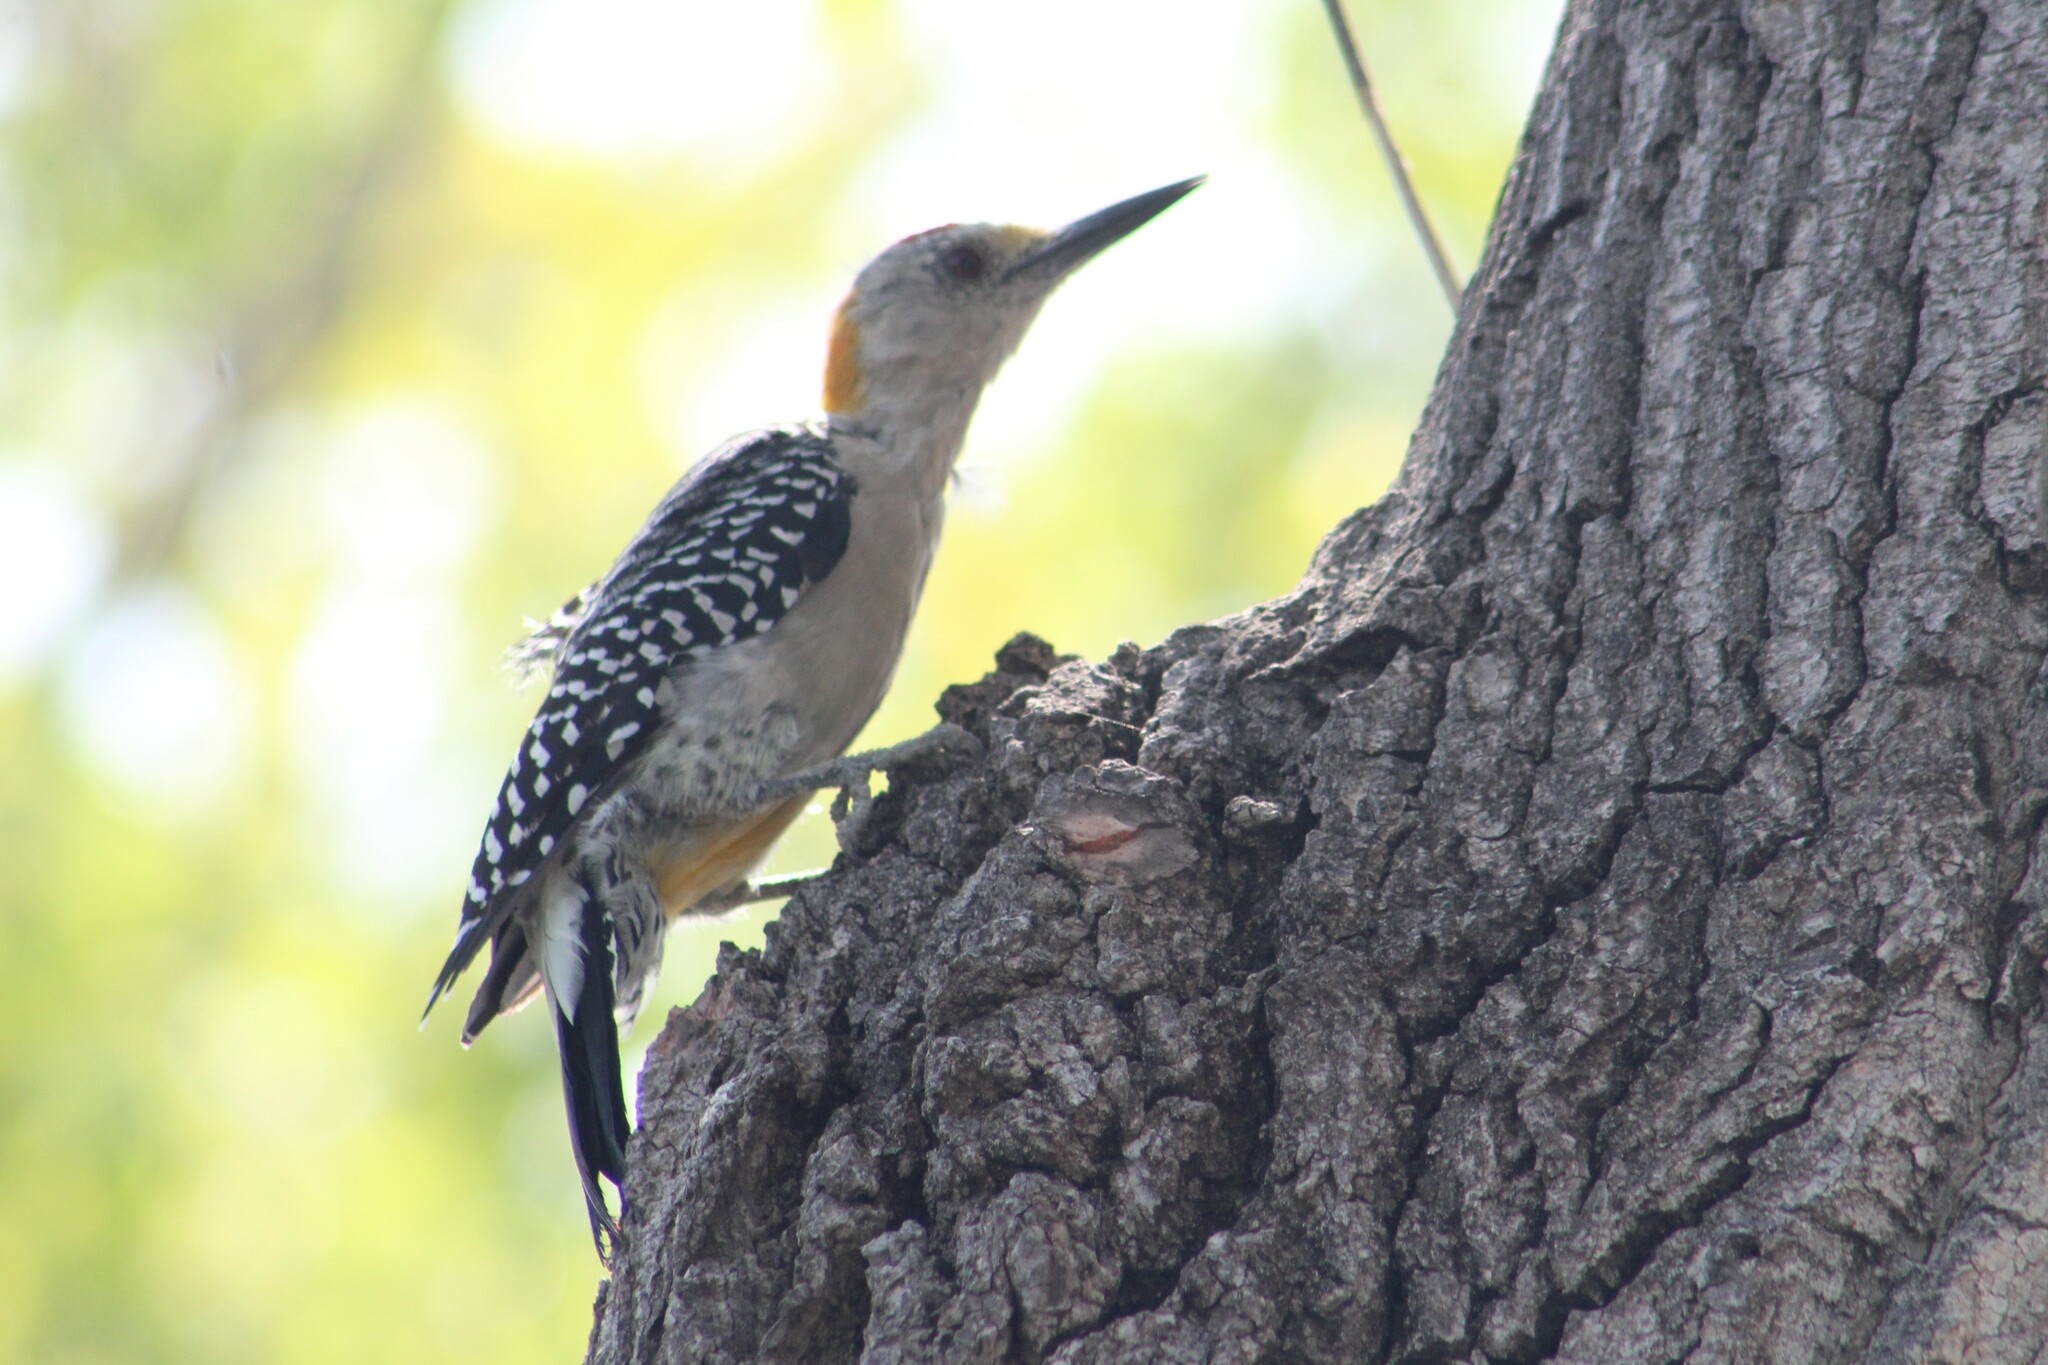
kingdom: Animalia
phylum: Chordata
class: Aves
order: Piciformes
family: Picidae
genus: Melanerpes
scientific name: Melanerpes aurifrons
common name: Golden-fronted woodpecker
